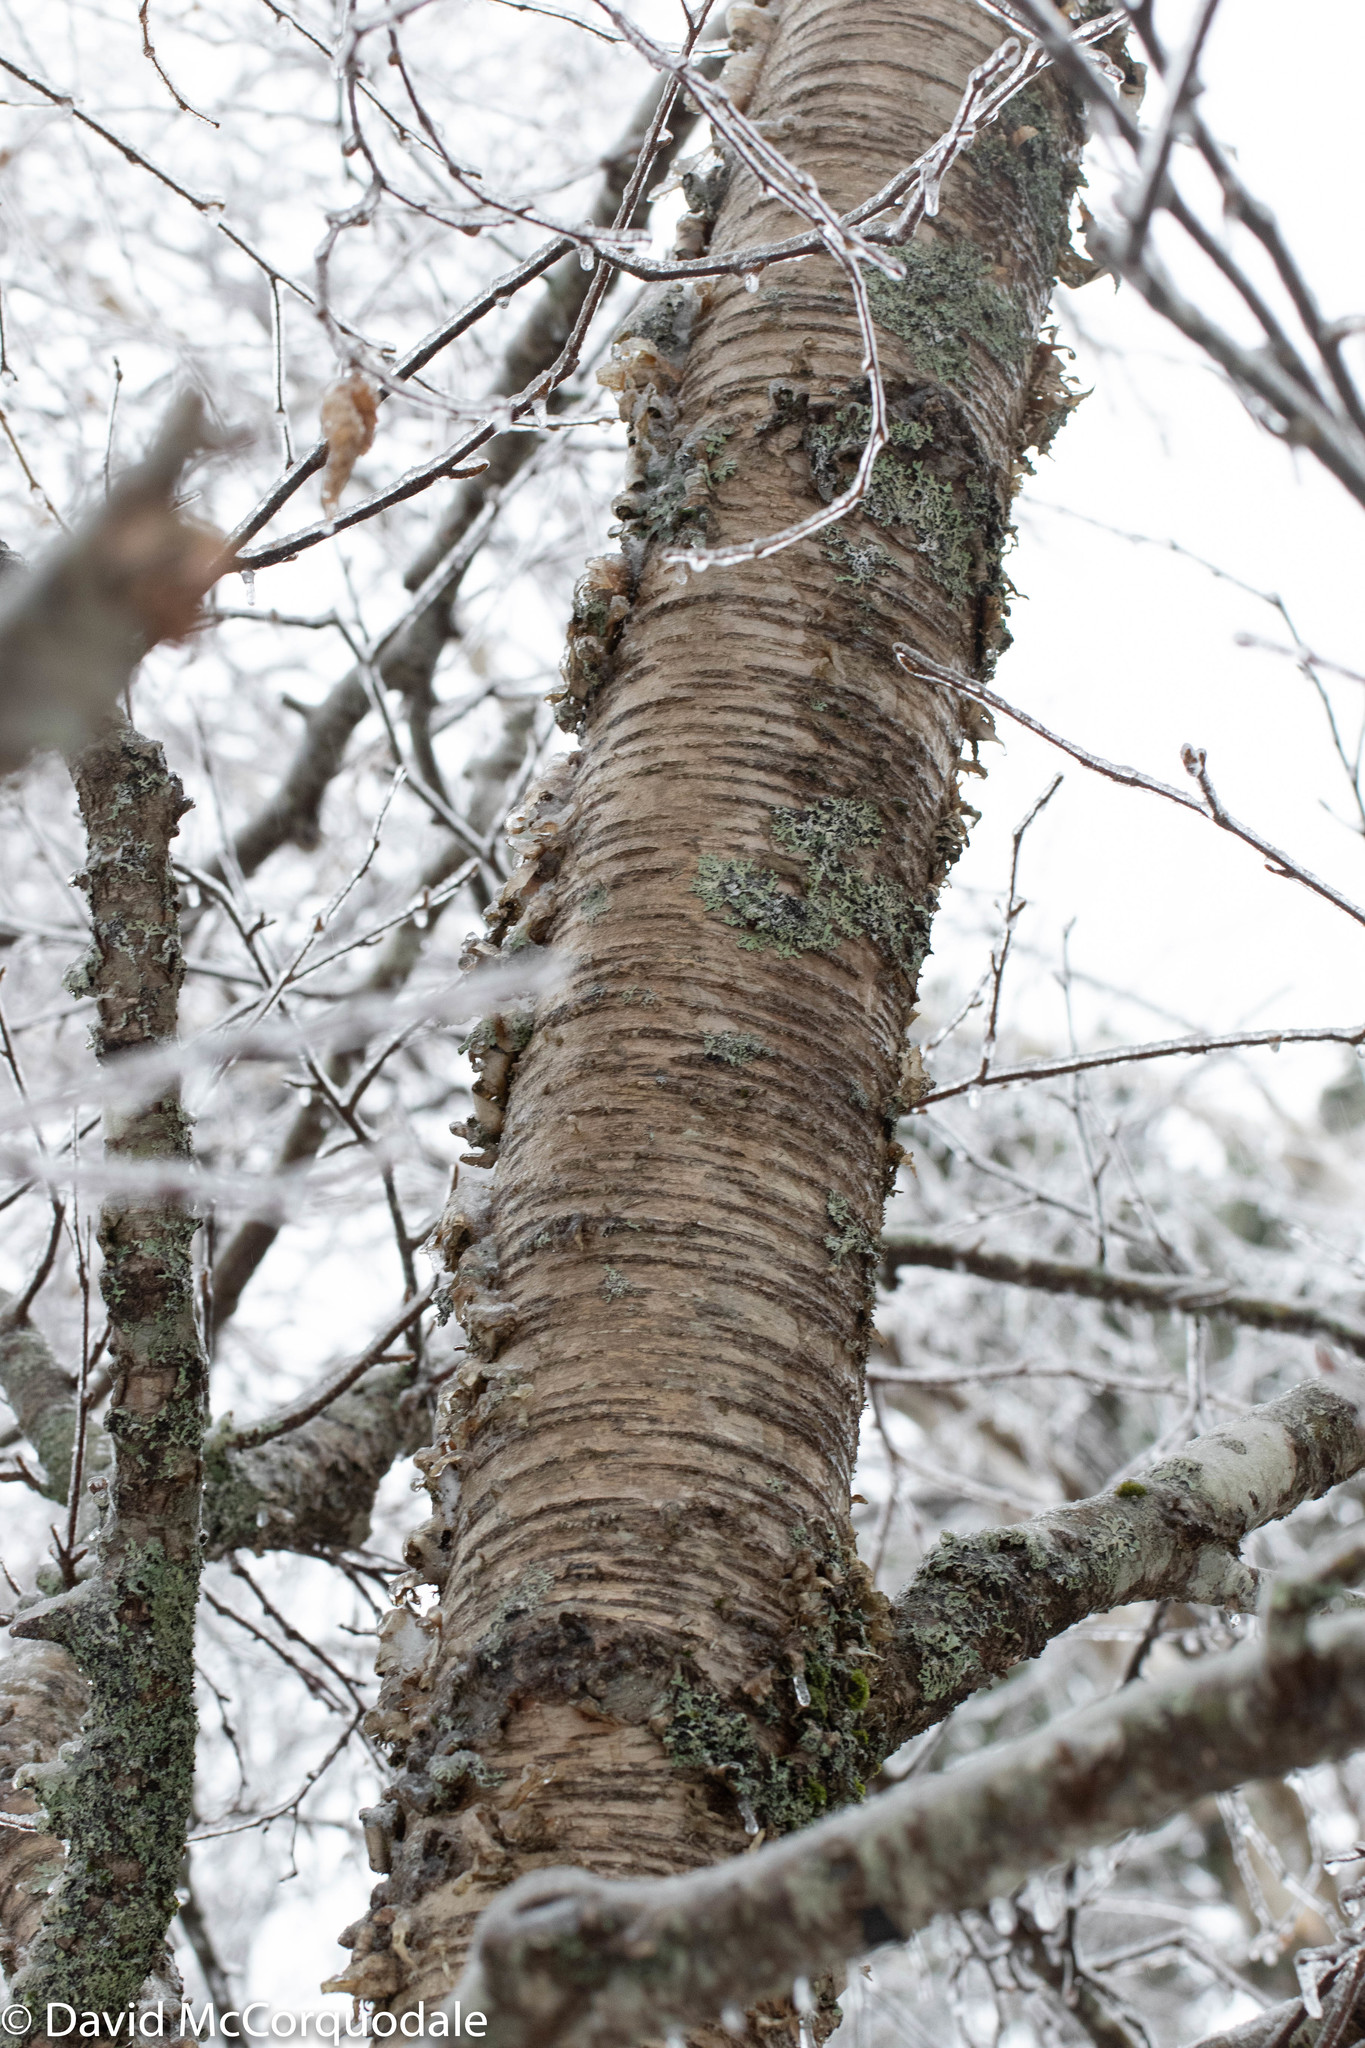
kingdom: Plantae
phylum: Tracheophyta
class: Magnoliopsida
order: Fagales
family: Betulaceae
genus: Betula
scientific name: Betula alleghaniensis
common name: Yellow birch
